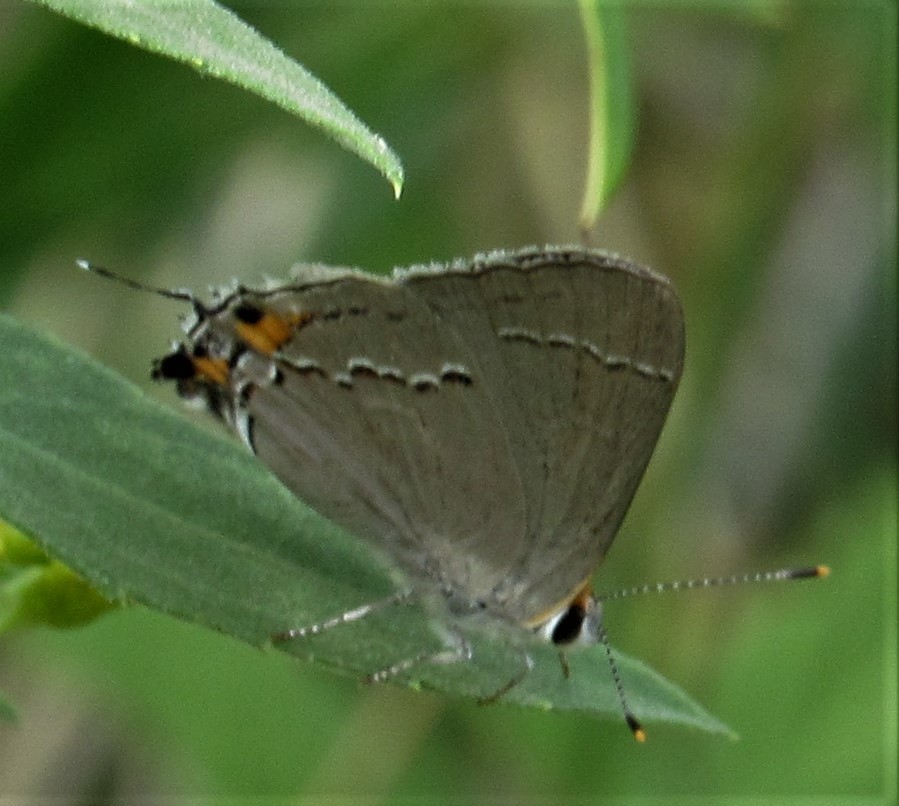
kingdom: Animalia
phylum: Arthropoda
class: Insecta
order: Lepidoptera
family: Lycaenidae
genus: Strymon
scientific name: Strymon melinus
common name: Gray hairstreak
